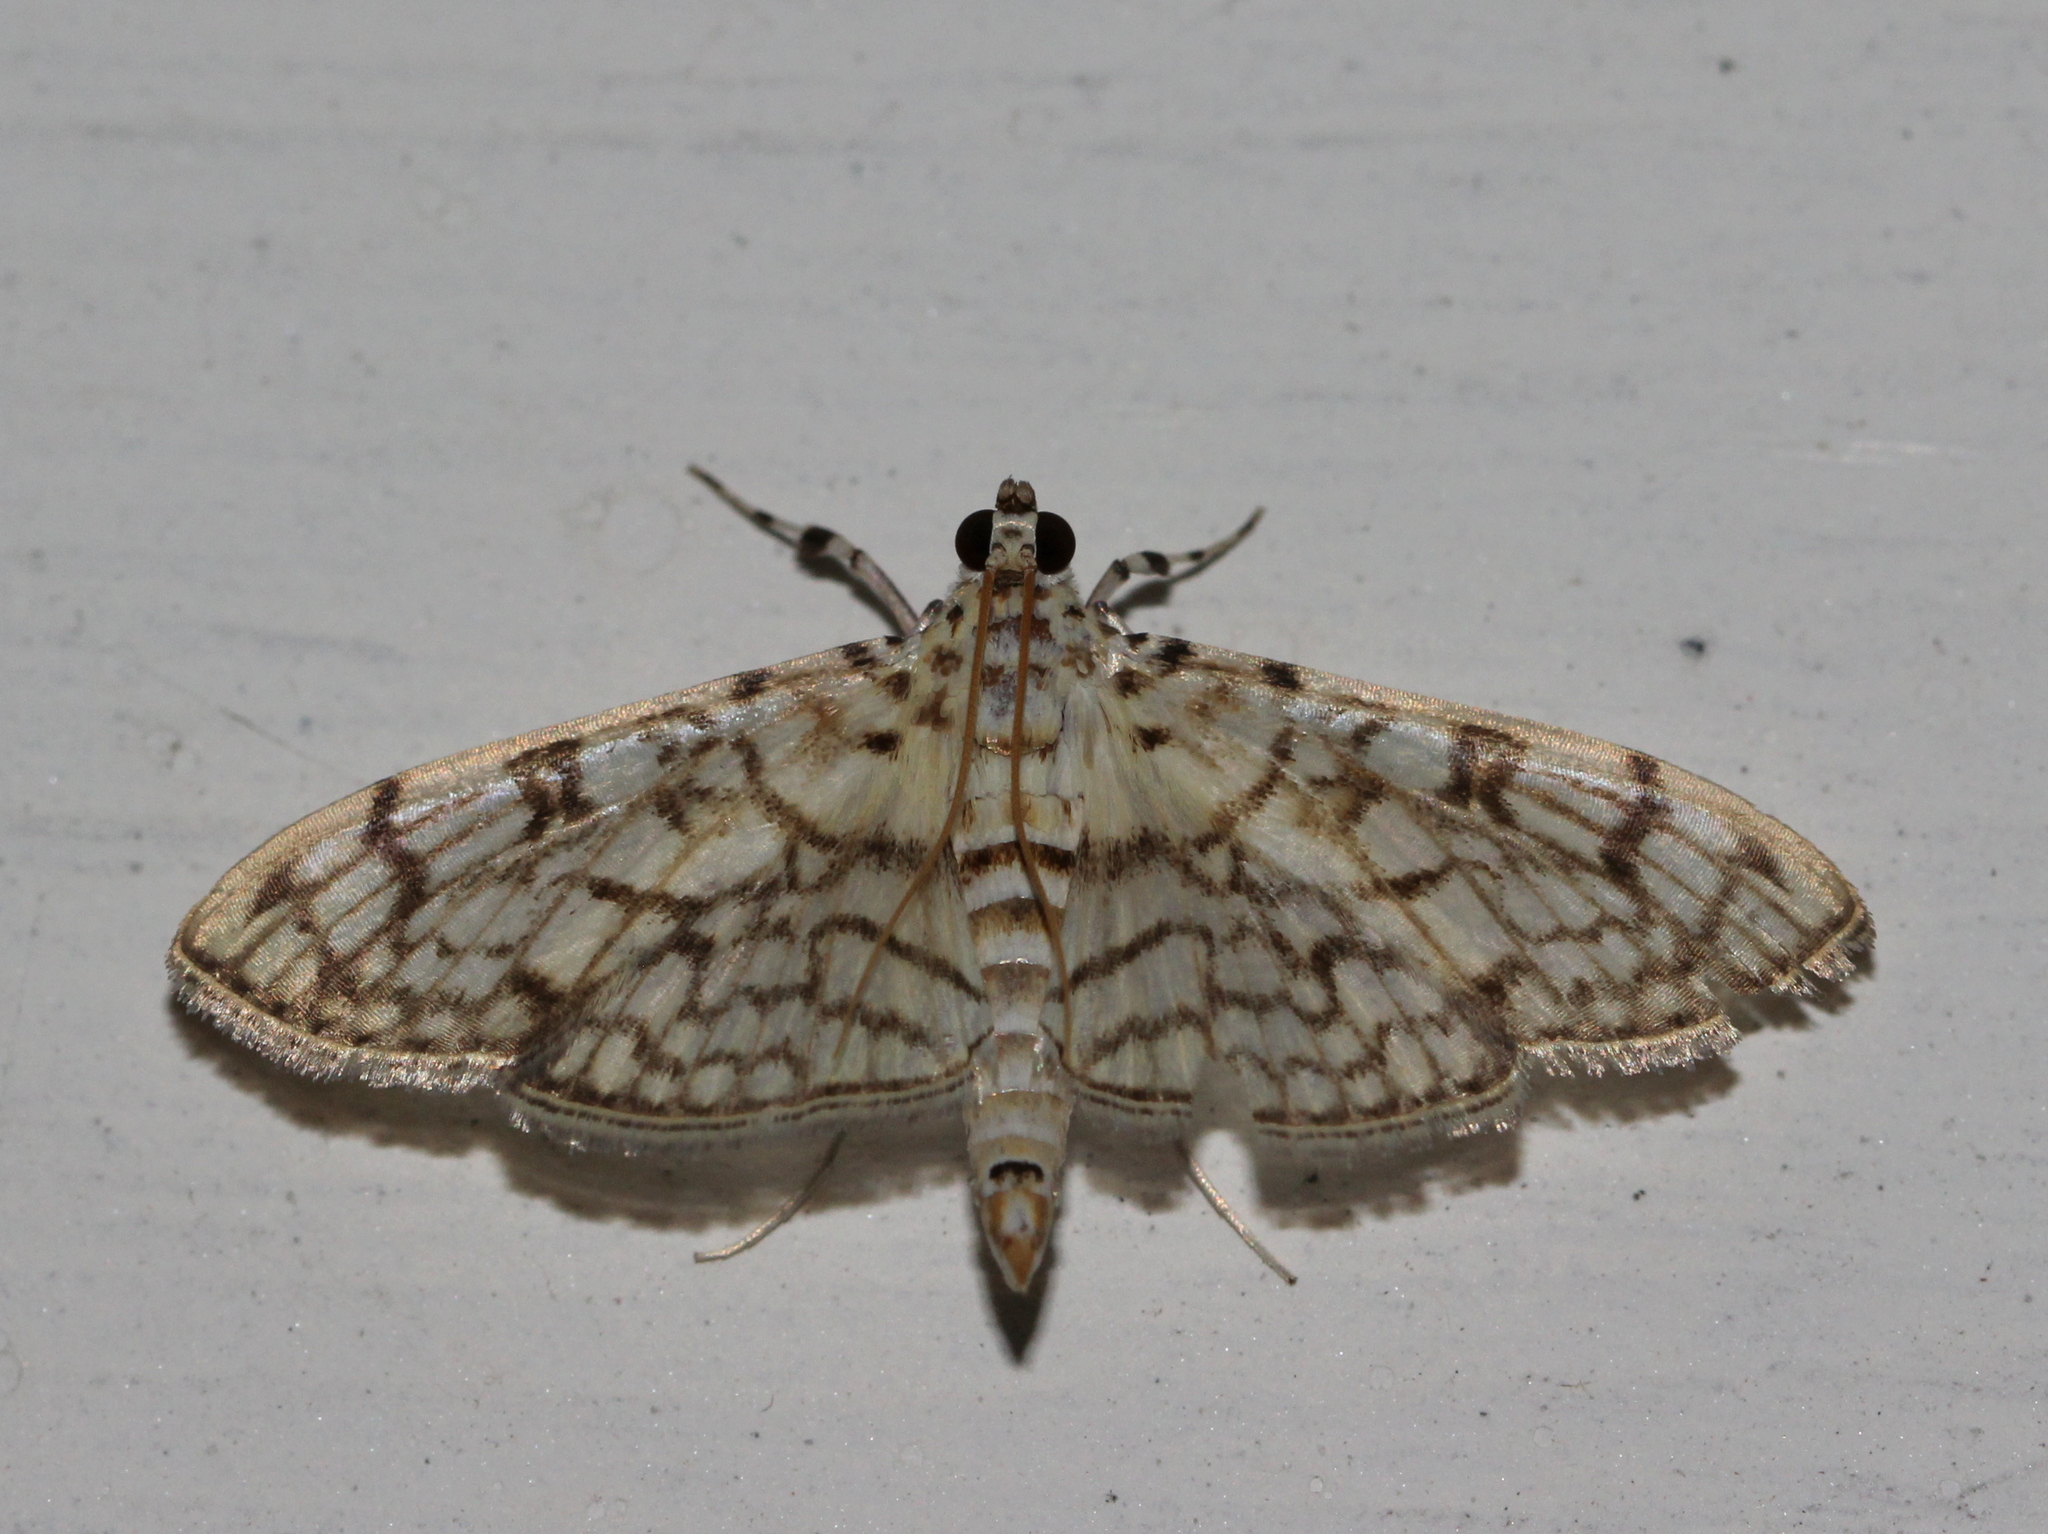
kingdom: Animalia
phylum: Arthropoda
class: Insecta
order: Lepidoptera
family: Crambidae
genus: Haritalodes
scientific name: Haritalodes derogata
